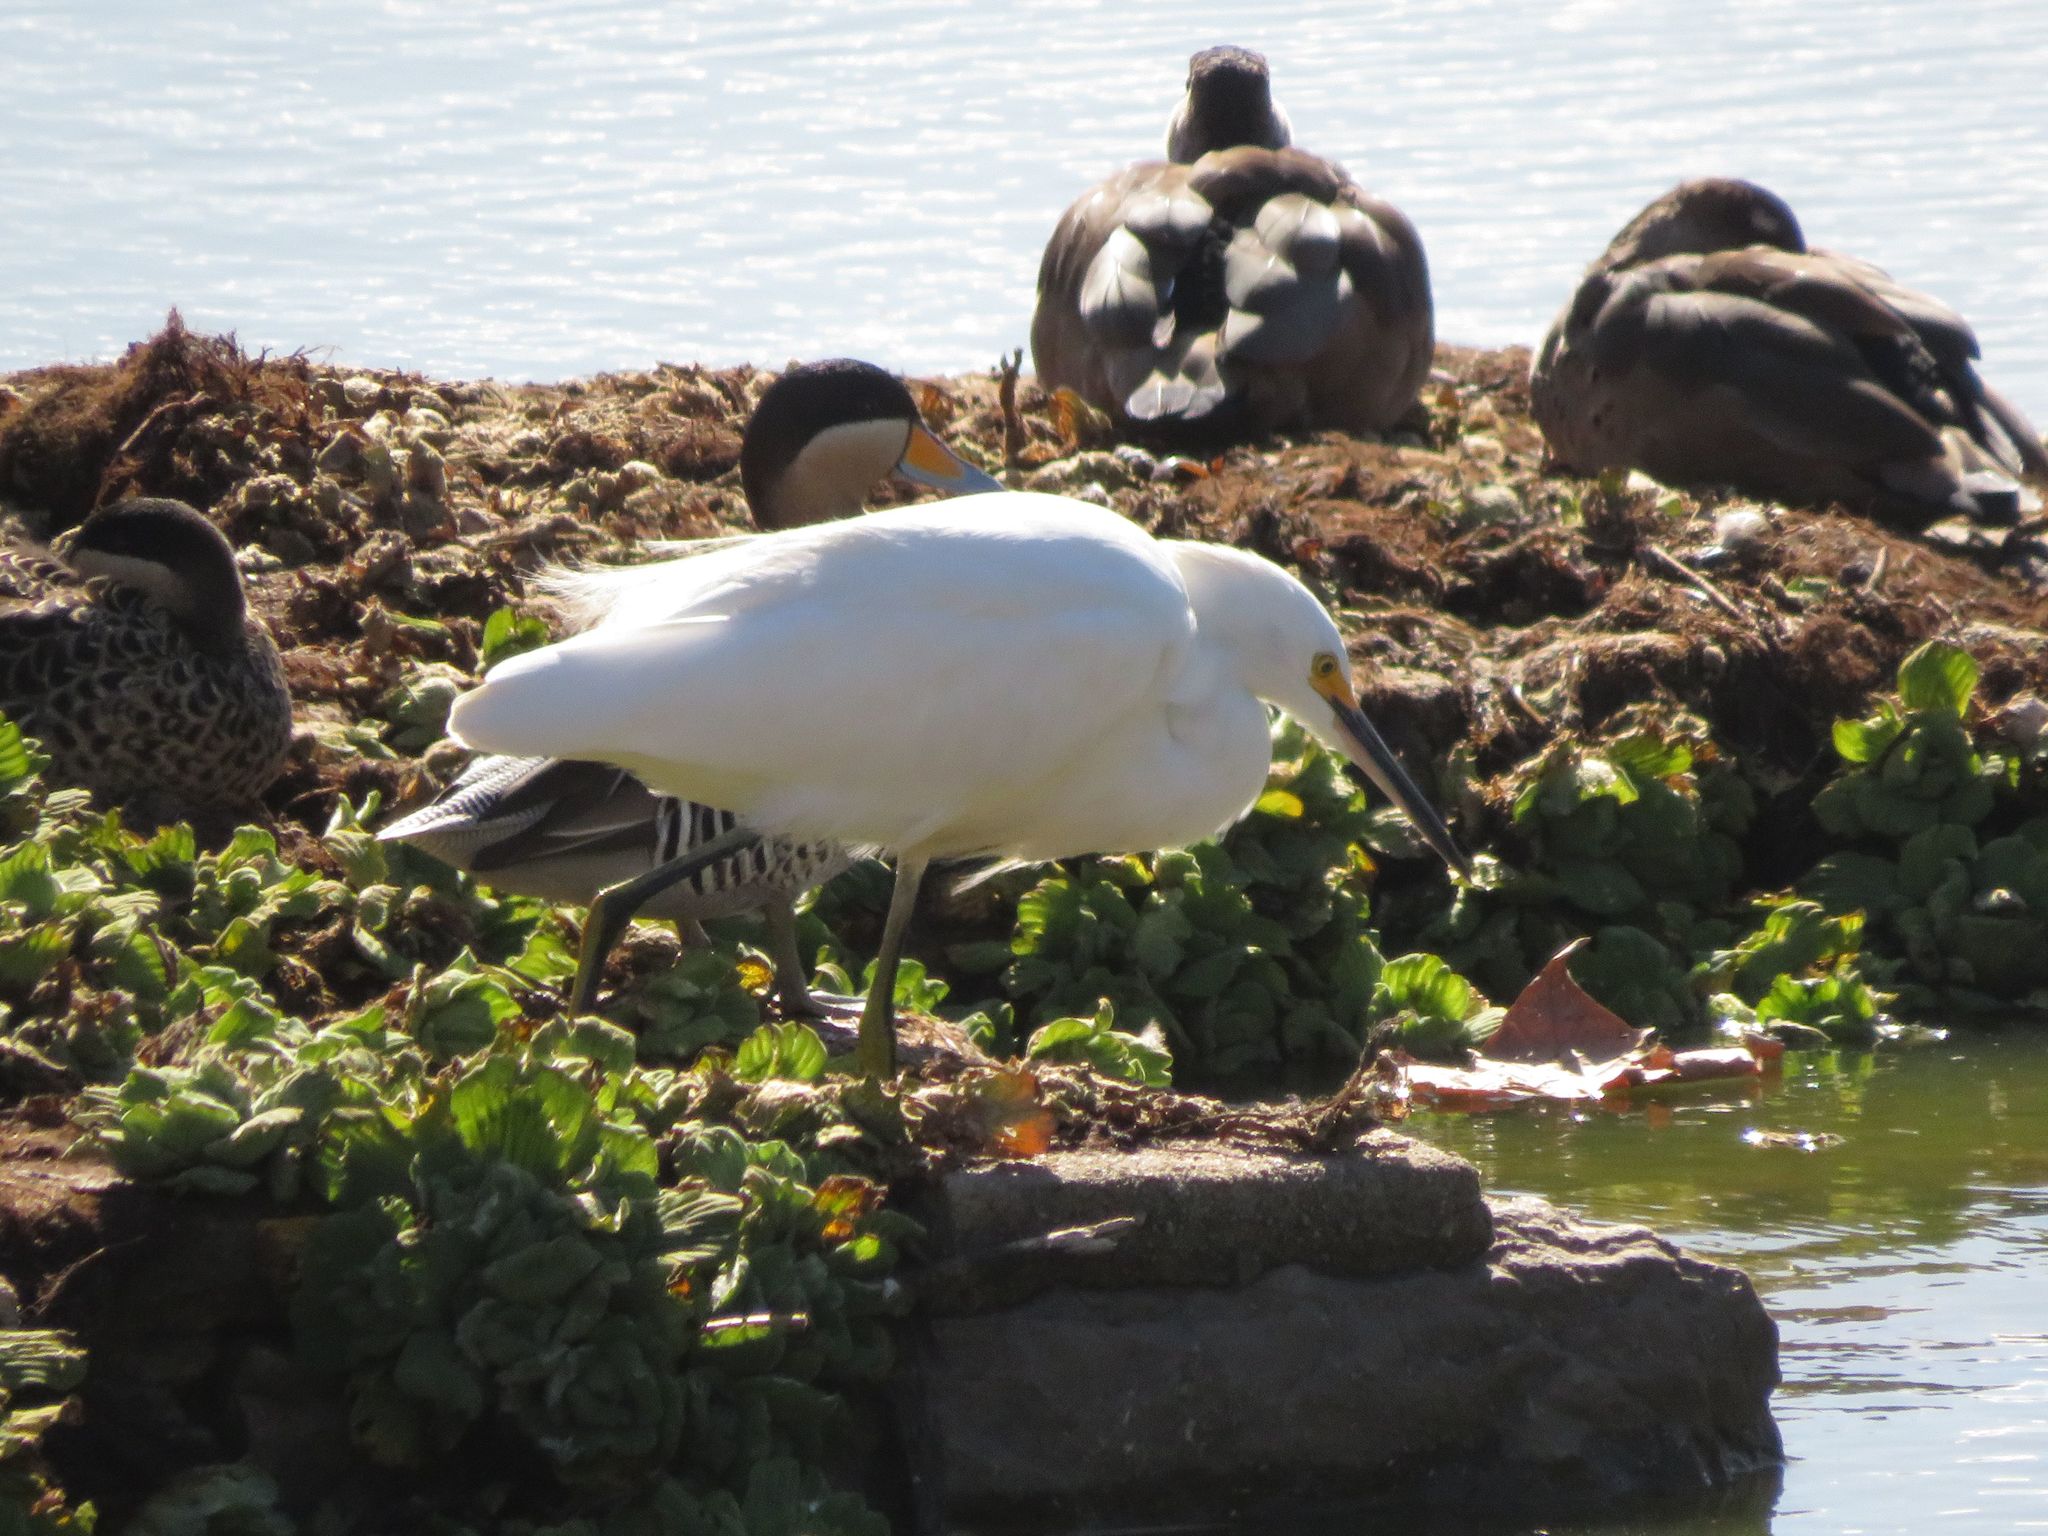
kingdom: Animalia
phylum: Chordata
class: Aves
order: Pelecaniformes
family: Ardeidae
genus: Egretta
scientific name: Egretta thula
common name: Snowy egret
